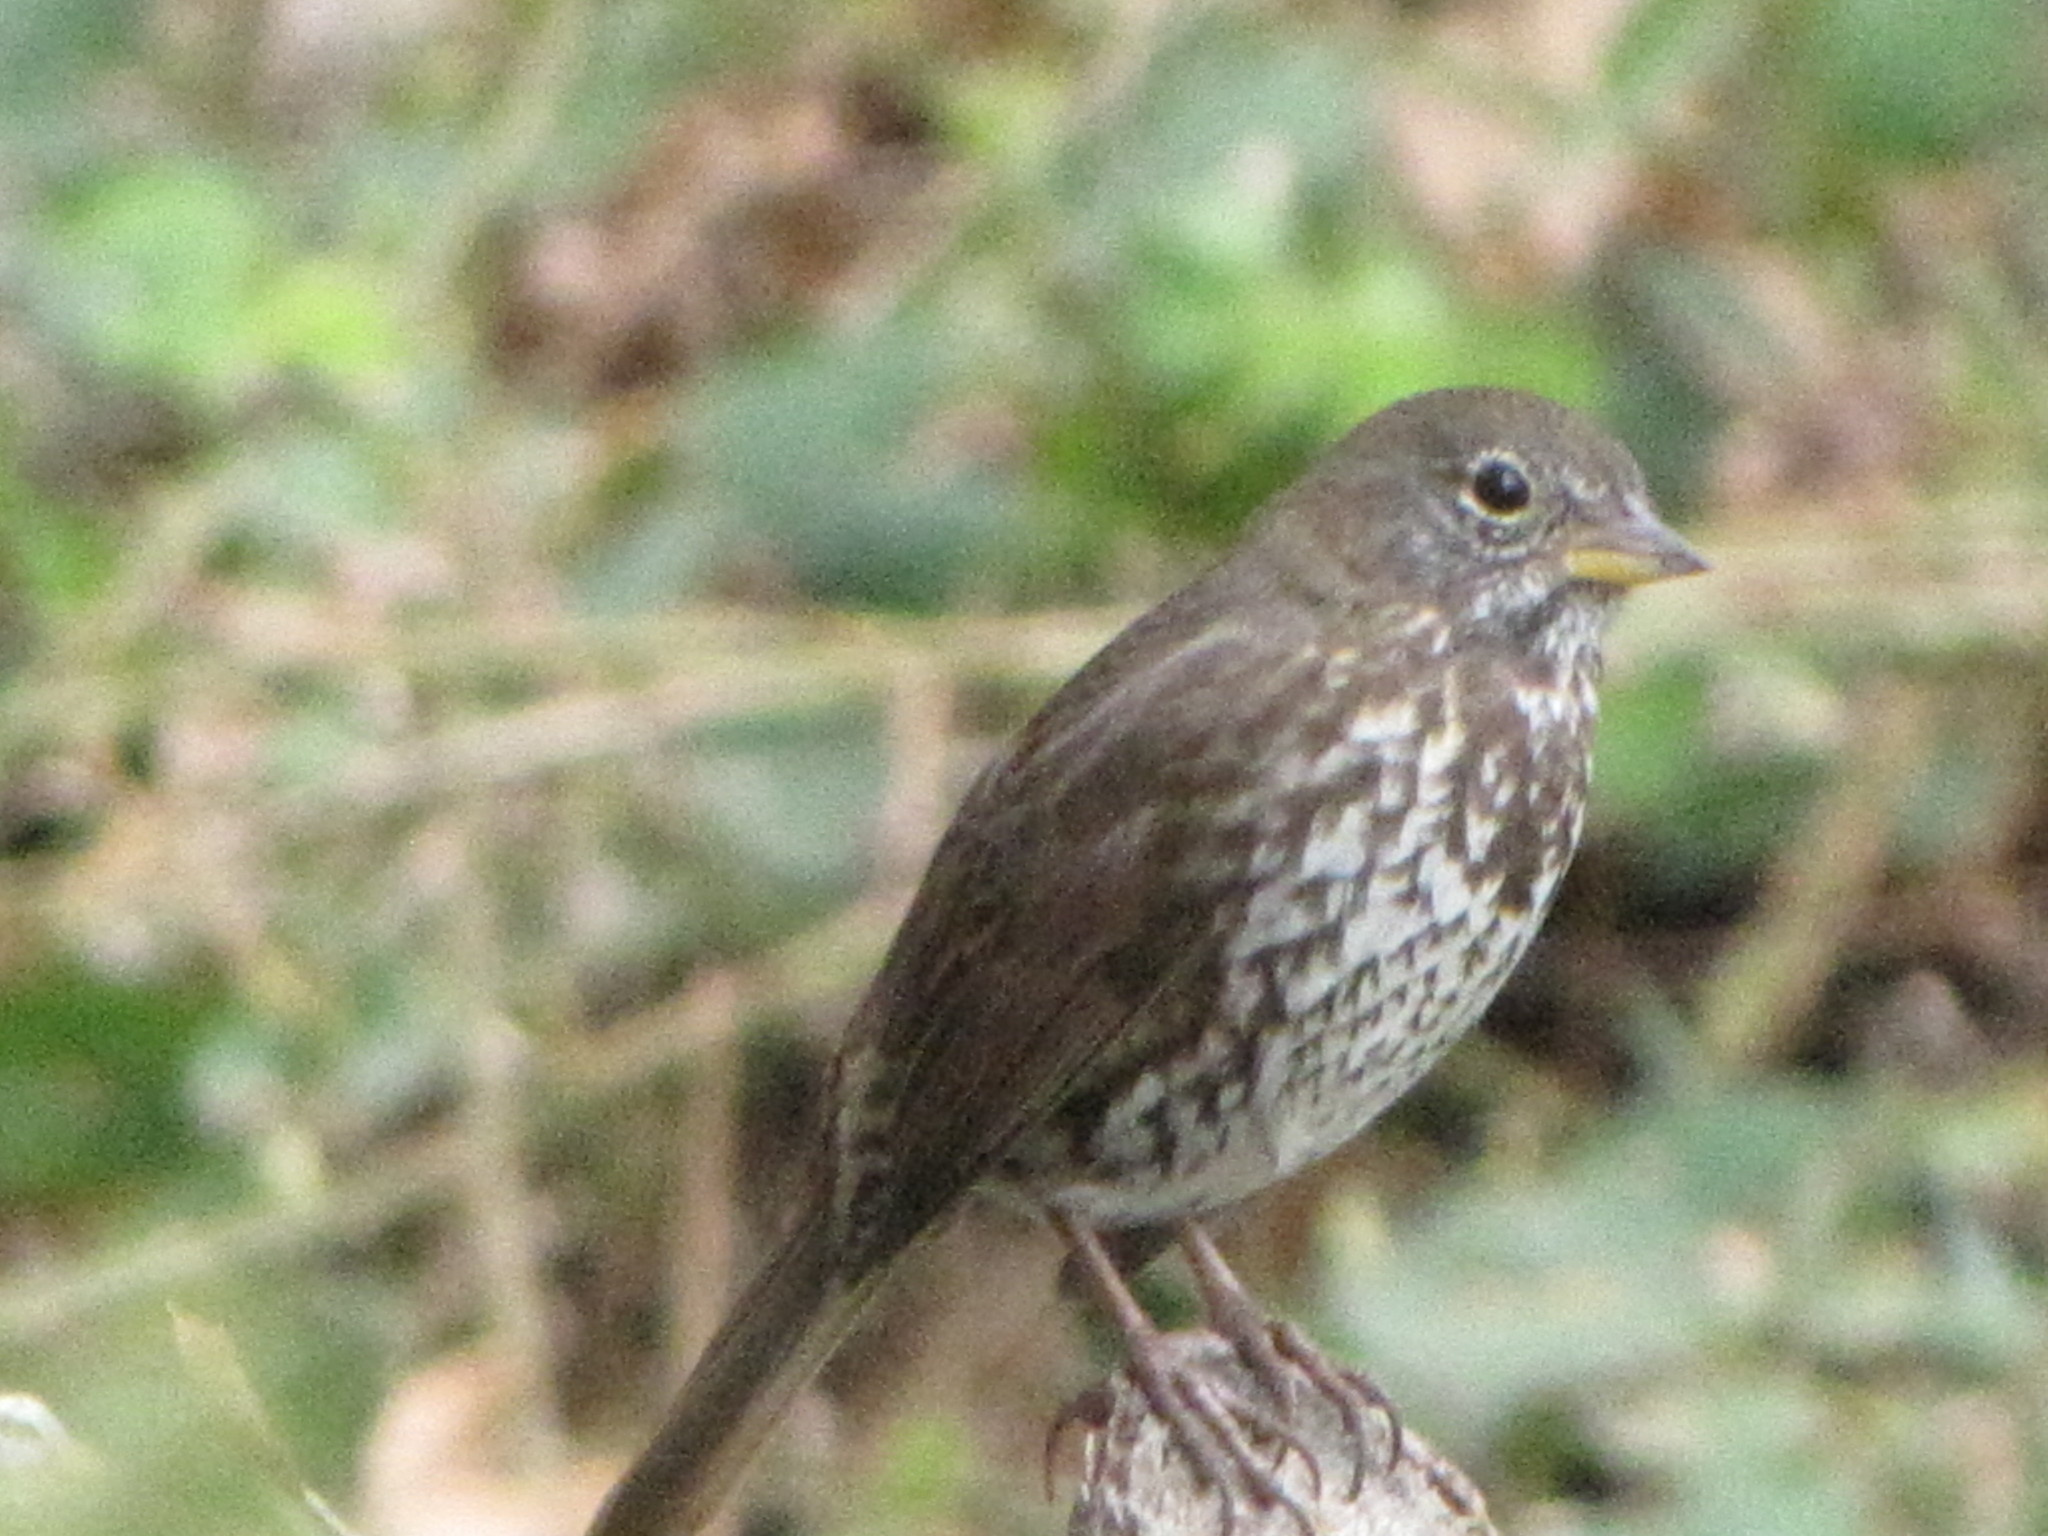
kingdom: Animalia
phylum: Chordata
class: Aves
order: Passeriformes
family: Passerellidae
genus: Passerella
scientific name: Passerella iliaca
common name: Fox sparrow
